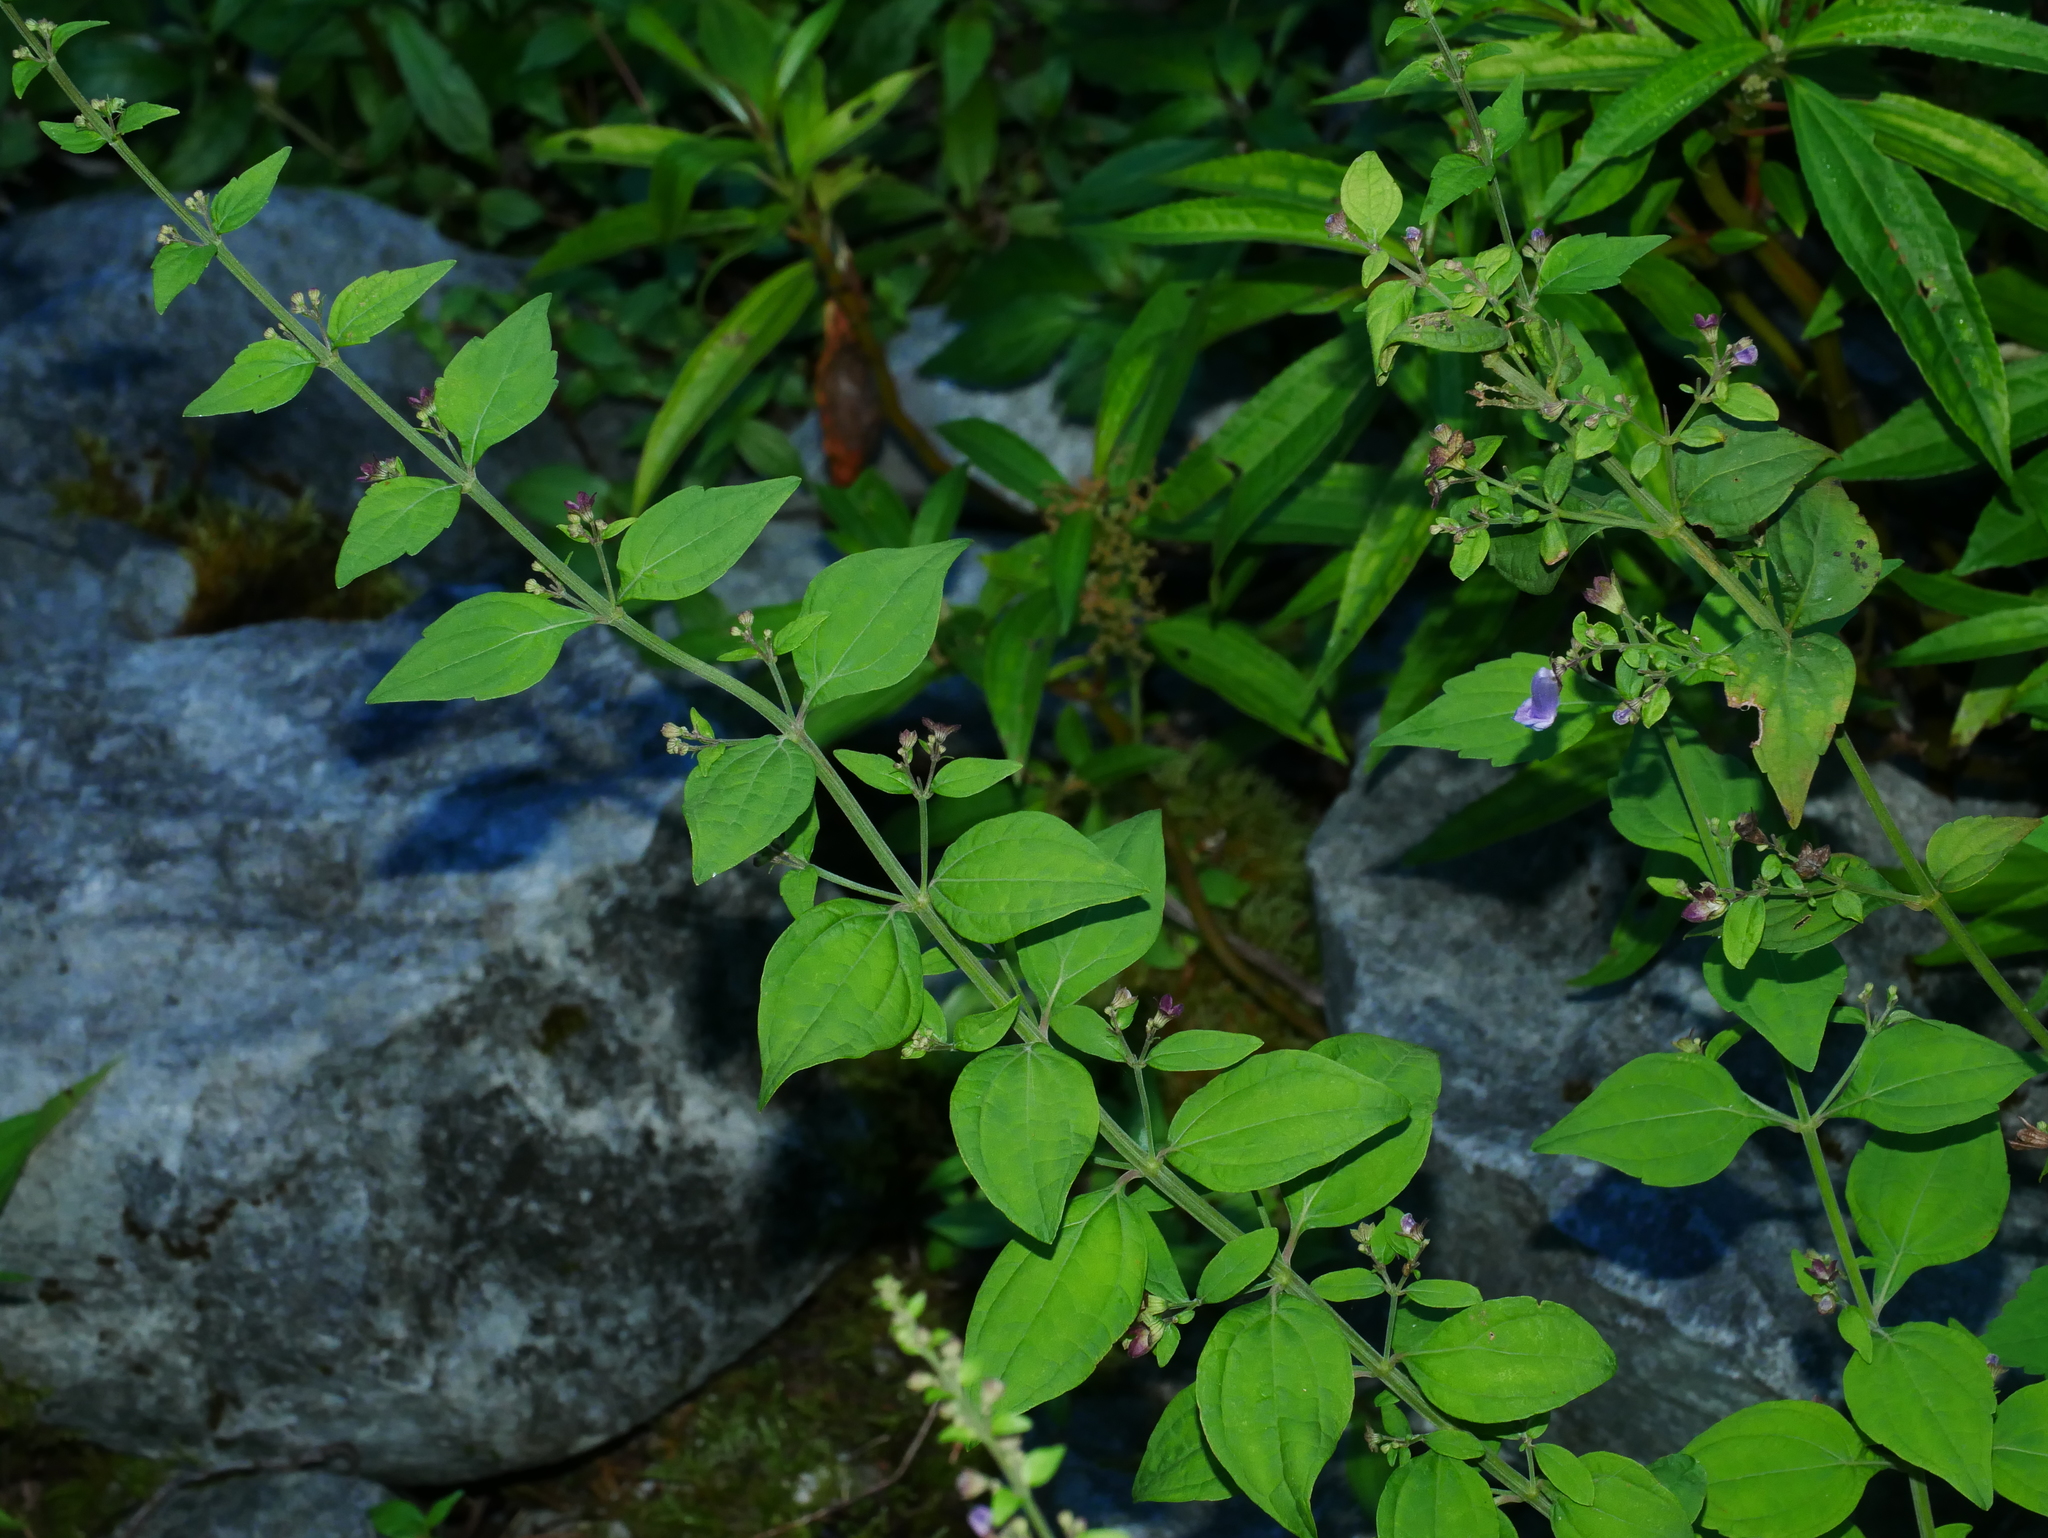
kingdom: Plantae
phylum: Tracheophyta
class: Magnoliopsida
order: Lamiales
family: Lamiaceae
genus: Isodon
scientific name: Isodon macrocalyx
